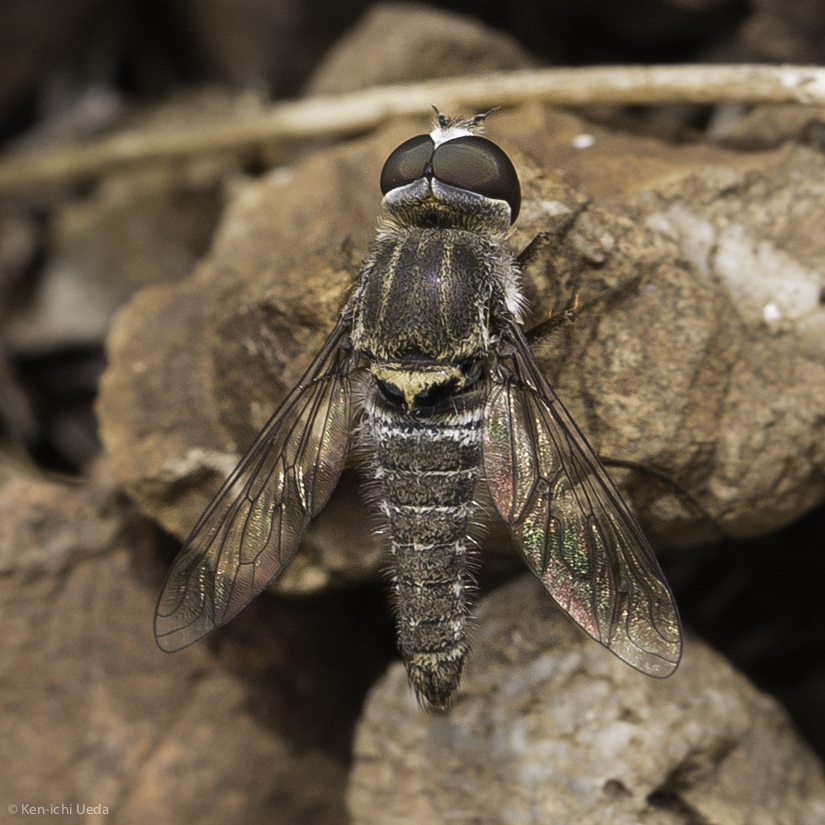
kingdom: Animalia
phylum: Arthropoda
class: Insecta
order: Diptera
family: Bombyliidae
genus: Aphoebantus
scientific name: Aphoebantus conurus
